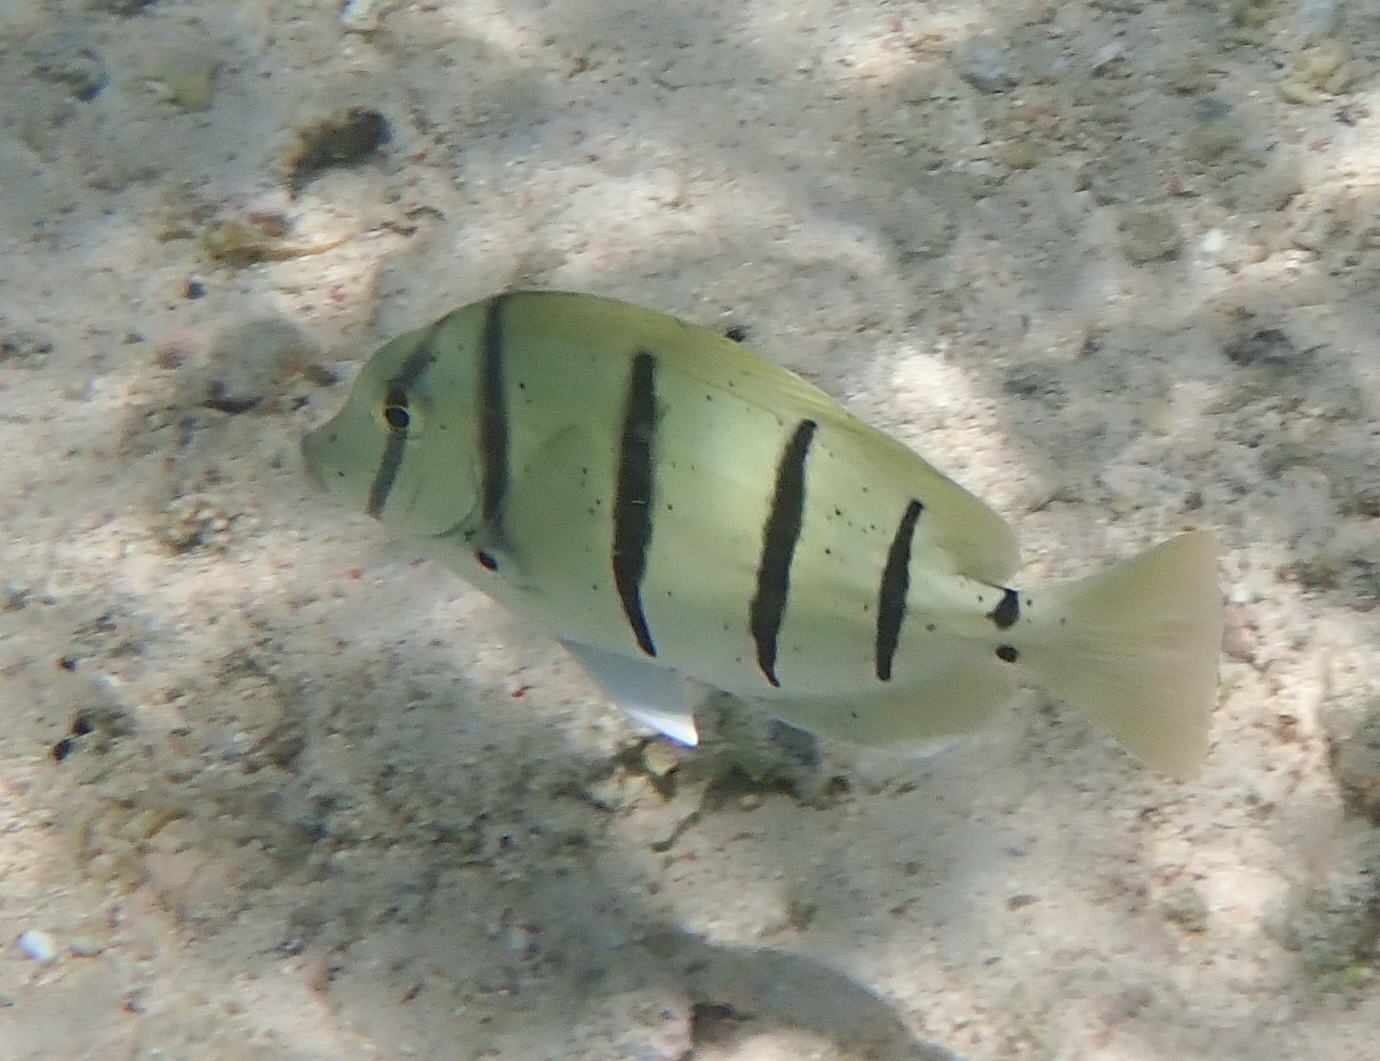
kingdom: Animalia
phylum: Chordata
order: Perciformes
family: Acanthuridae
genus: Acanthurus
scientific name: Acanthurus triostegus
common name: Convict surgeonfish
